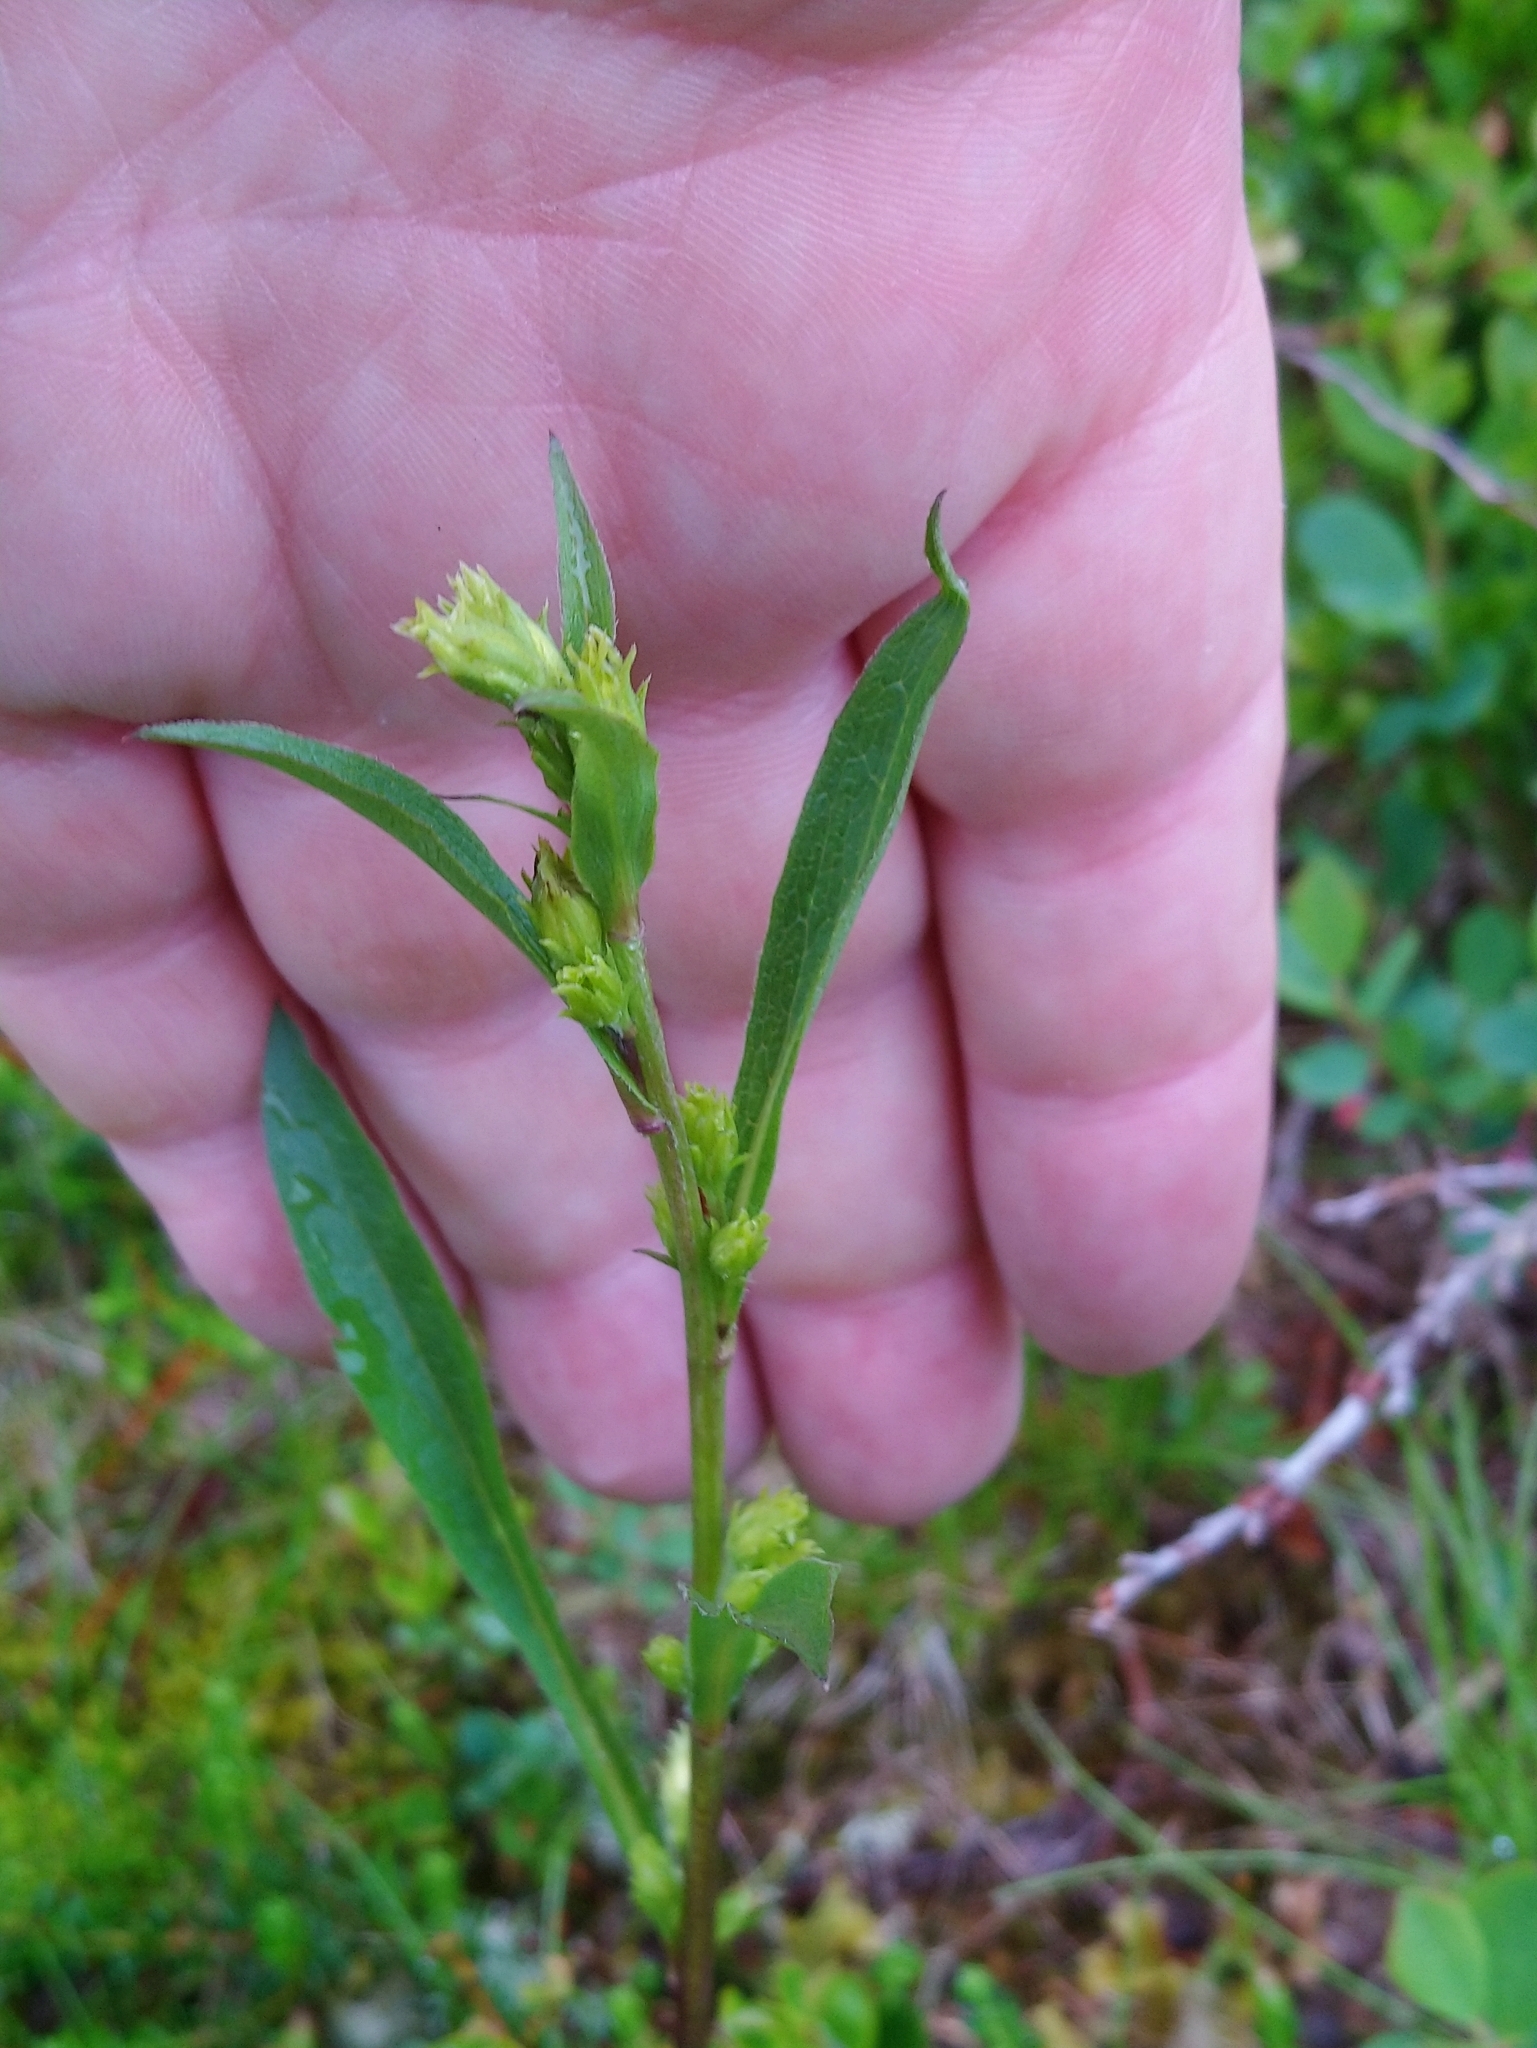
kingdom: Plantae
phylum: Tracheophyta
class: Magnoliopsida
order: Asterales
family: Asteraceae
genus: Solidago
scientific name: Solidago virgaurea
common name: Goldenrod
